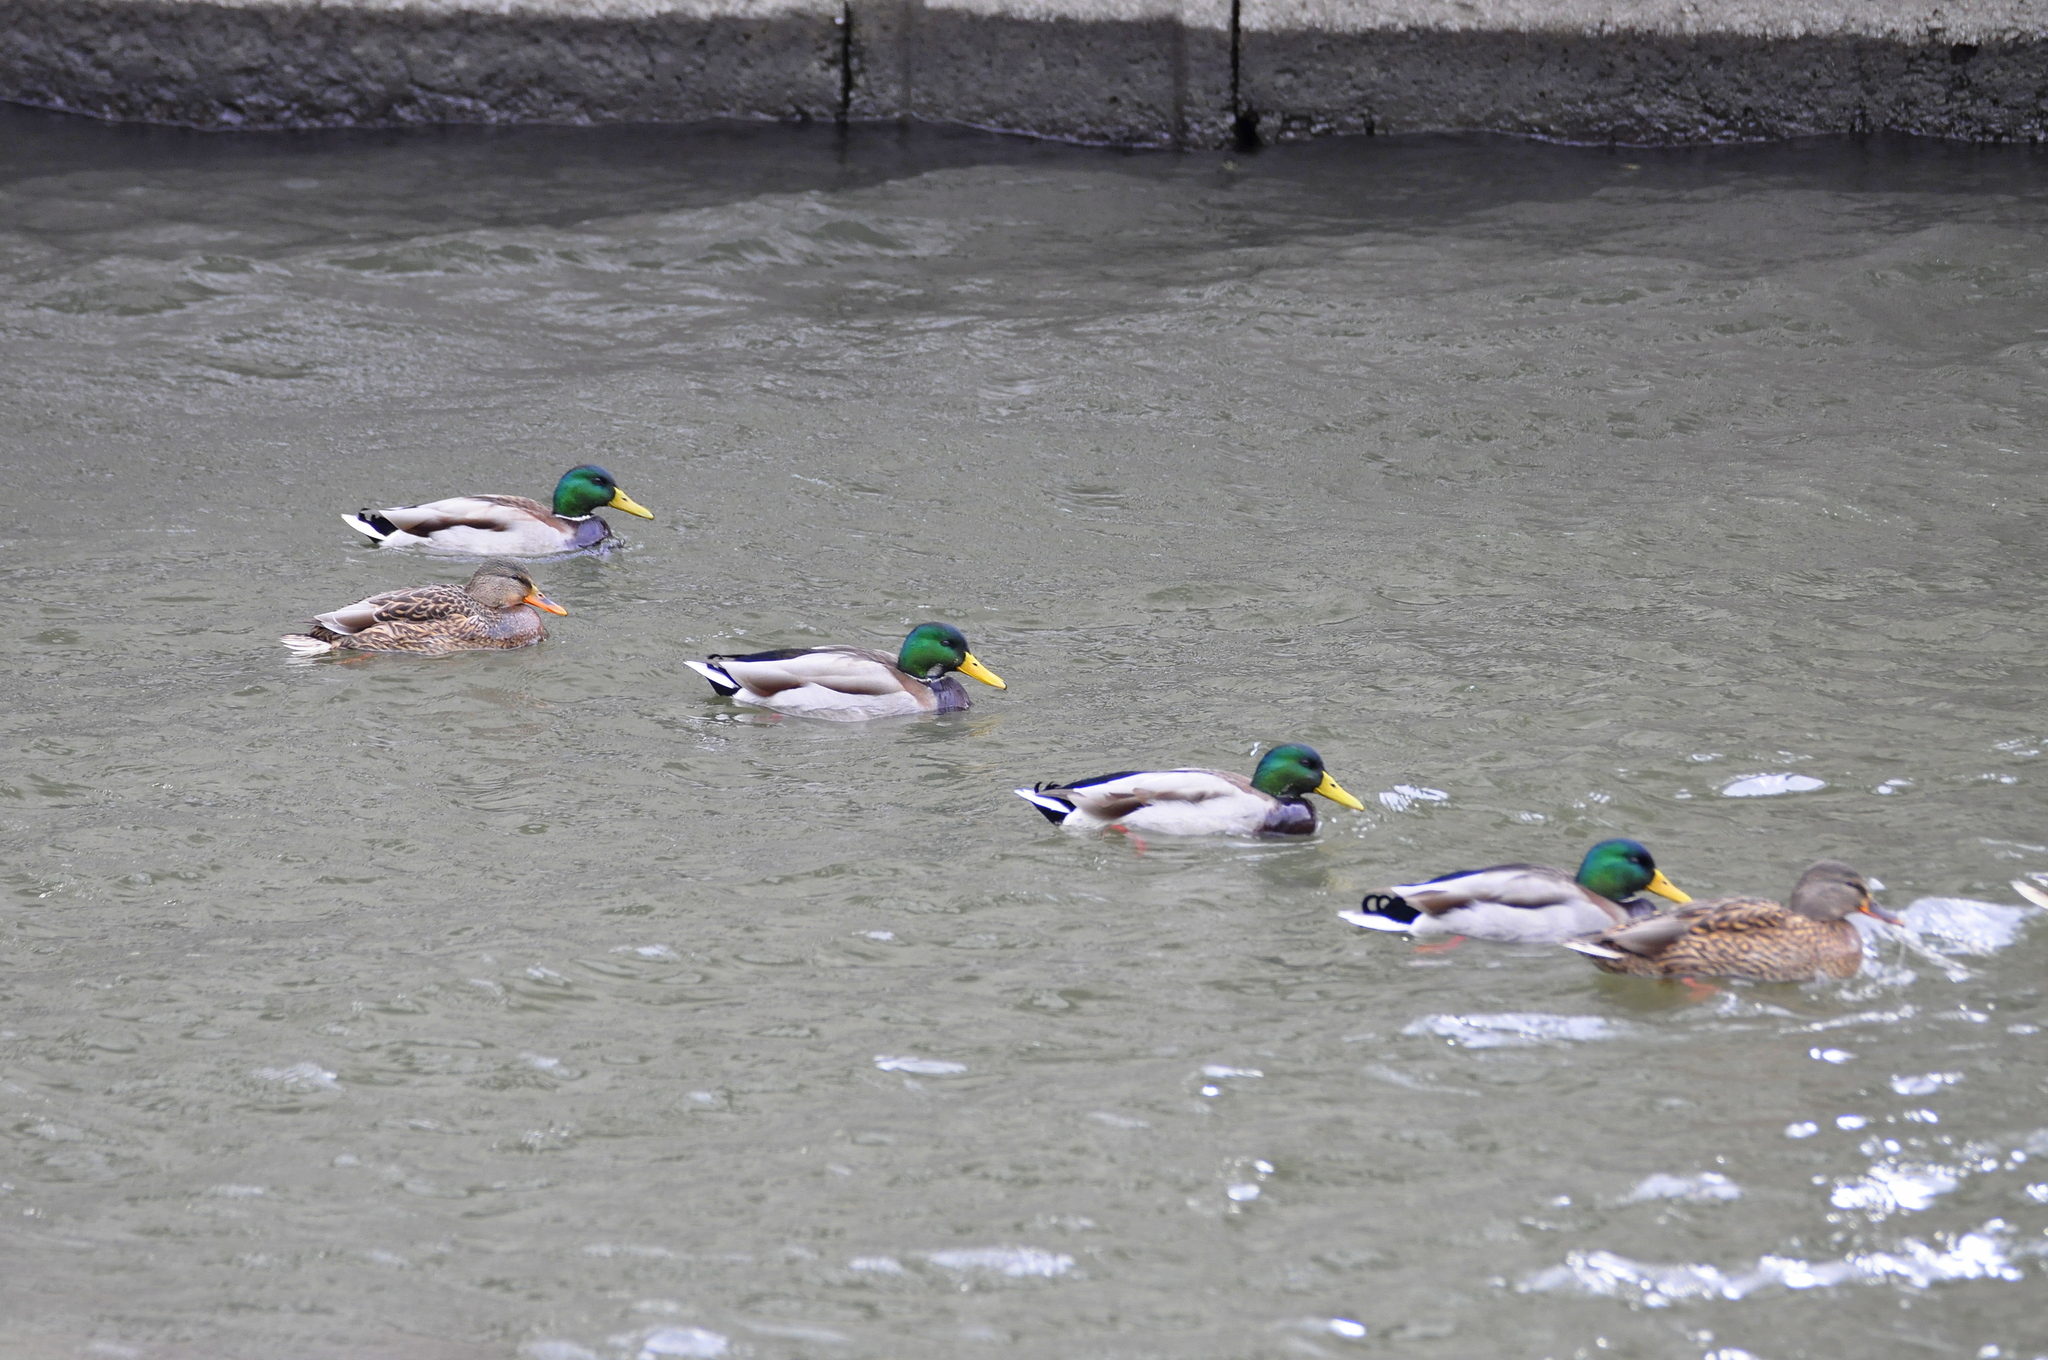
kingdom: Animalia
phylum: Chordata
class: Aves
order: Anseriformes
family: Anatidae
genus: Anas
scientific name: Anas platyrhynchos
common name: Mallard
